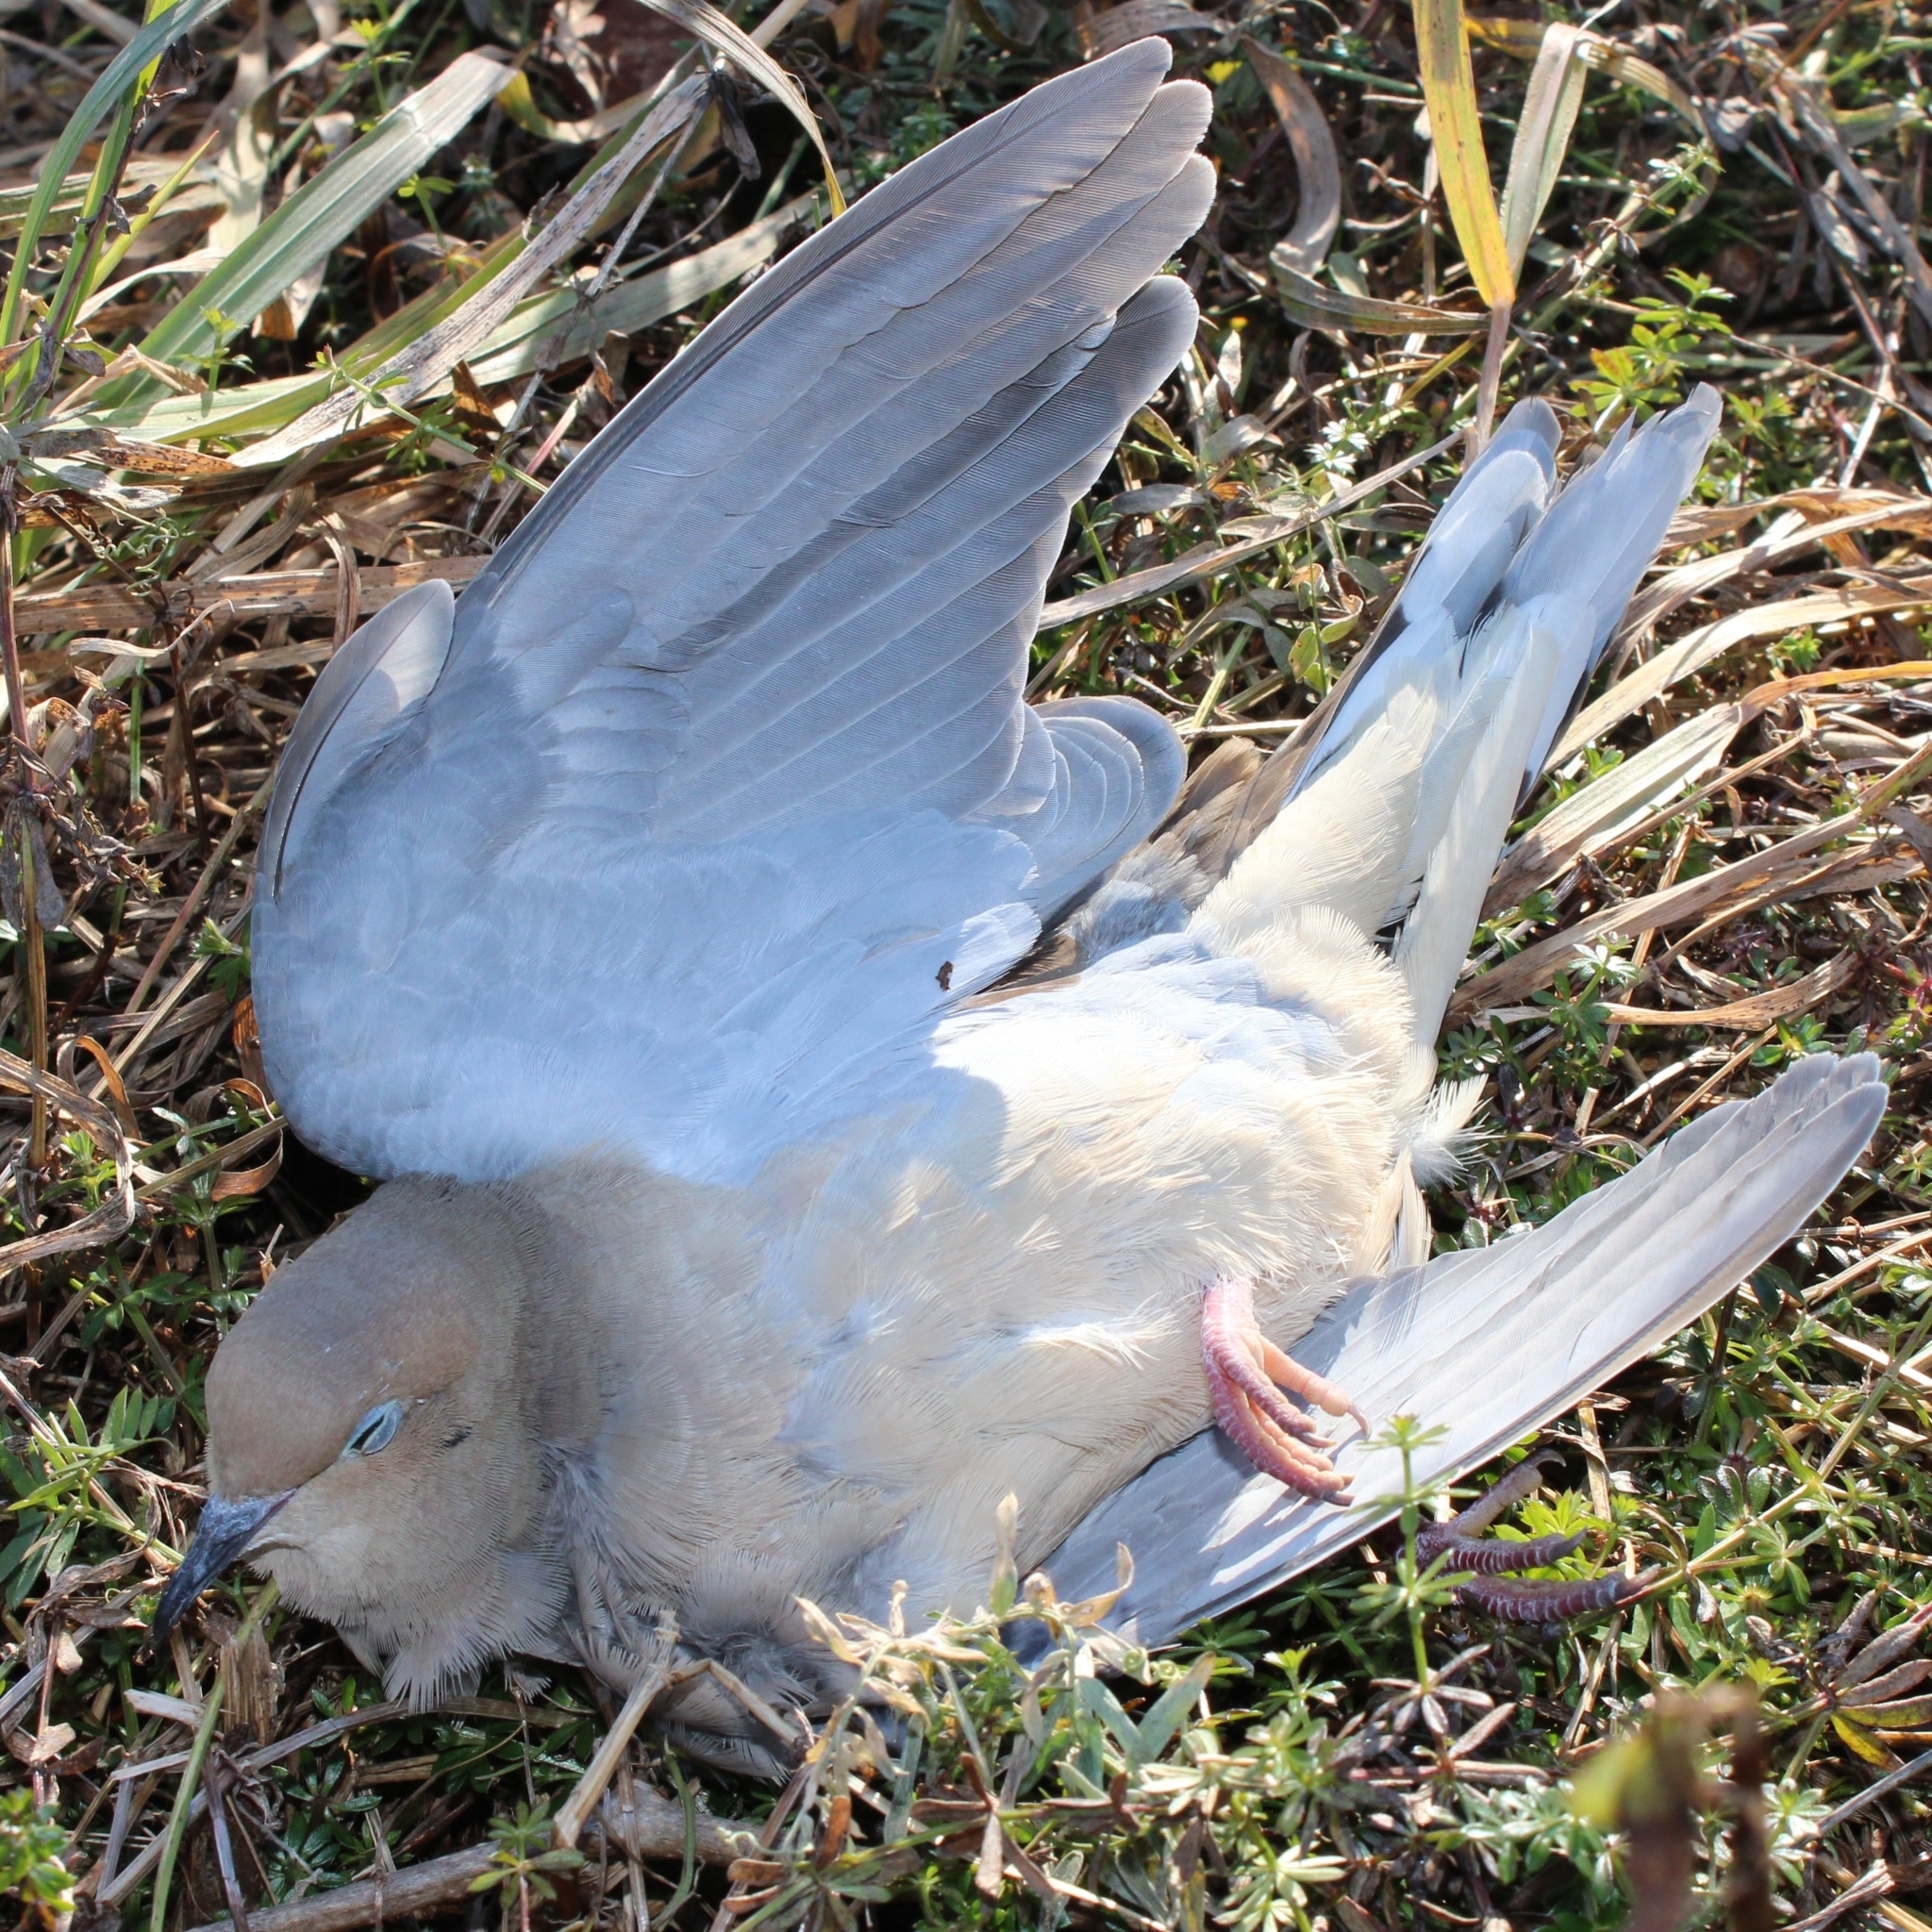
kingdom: Animalia
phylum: Chordata
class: Aves
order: Columbiformes
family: Columbidae
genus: Zenaida
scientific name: Zenaida macroura
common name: Mourning dove
